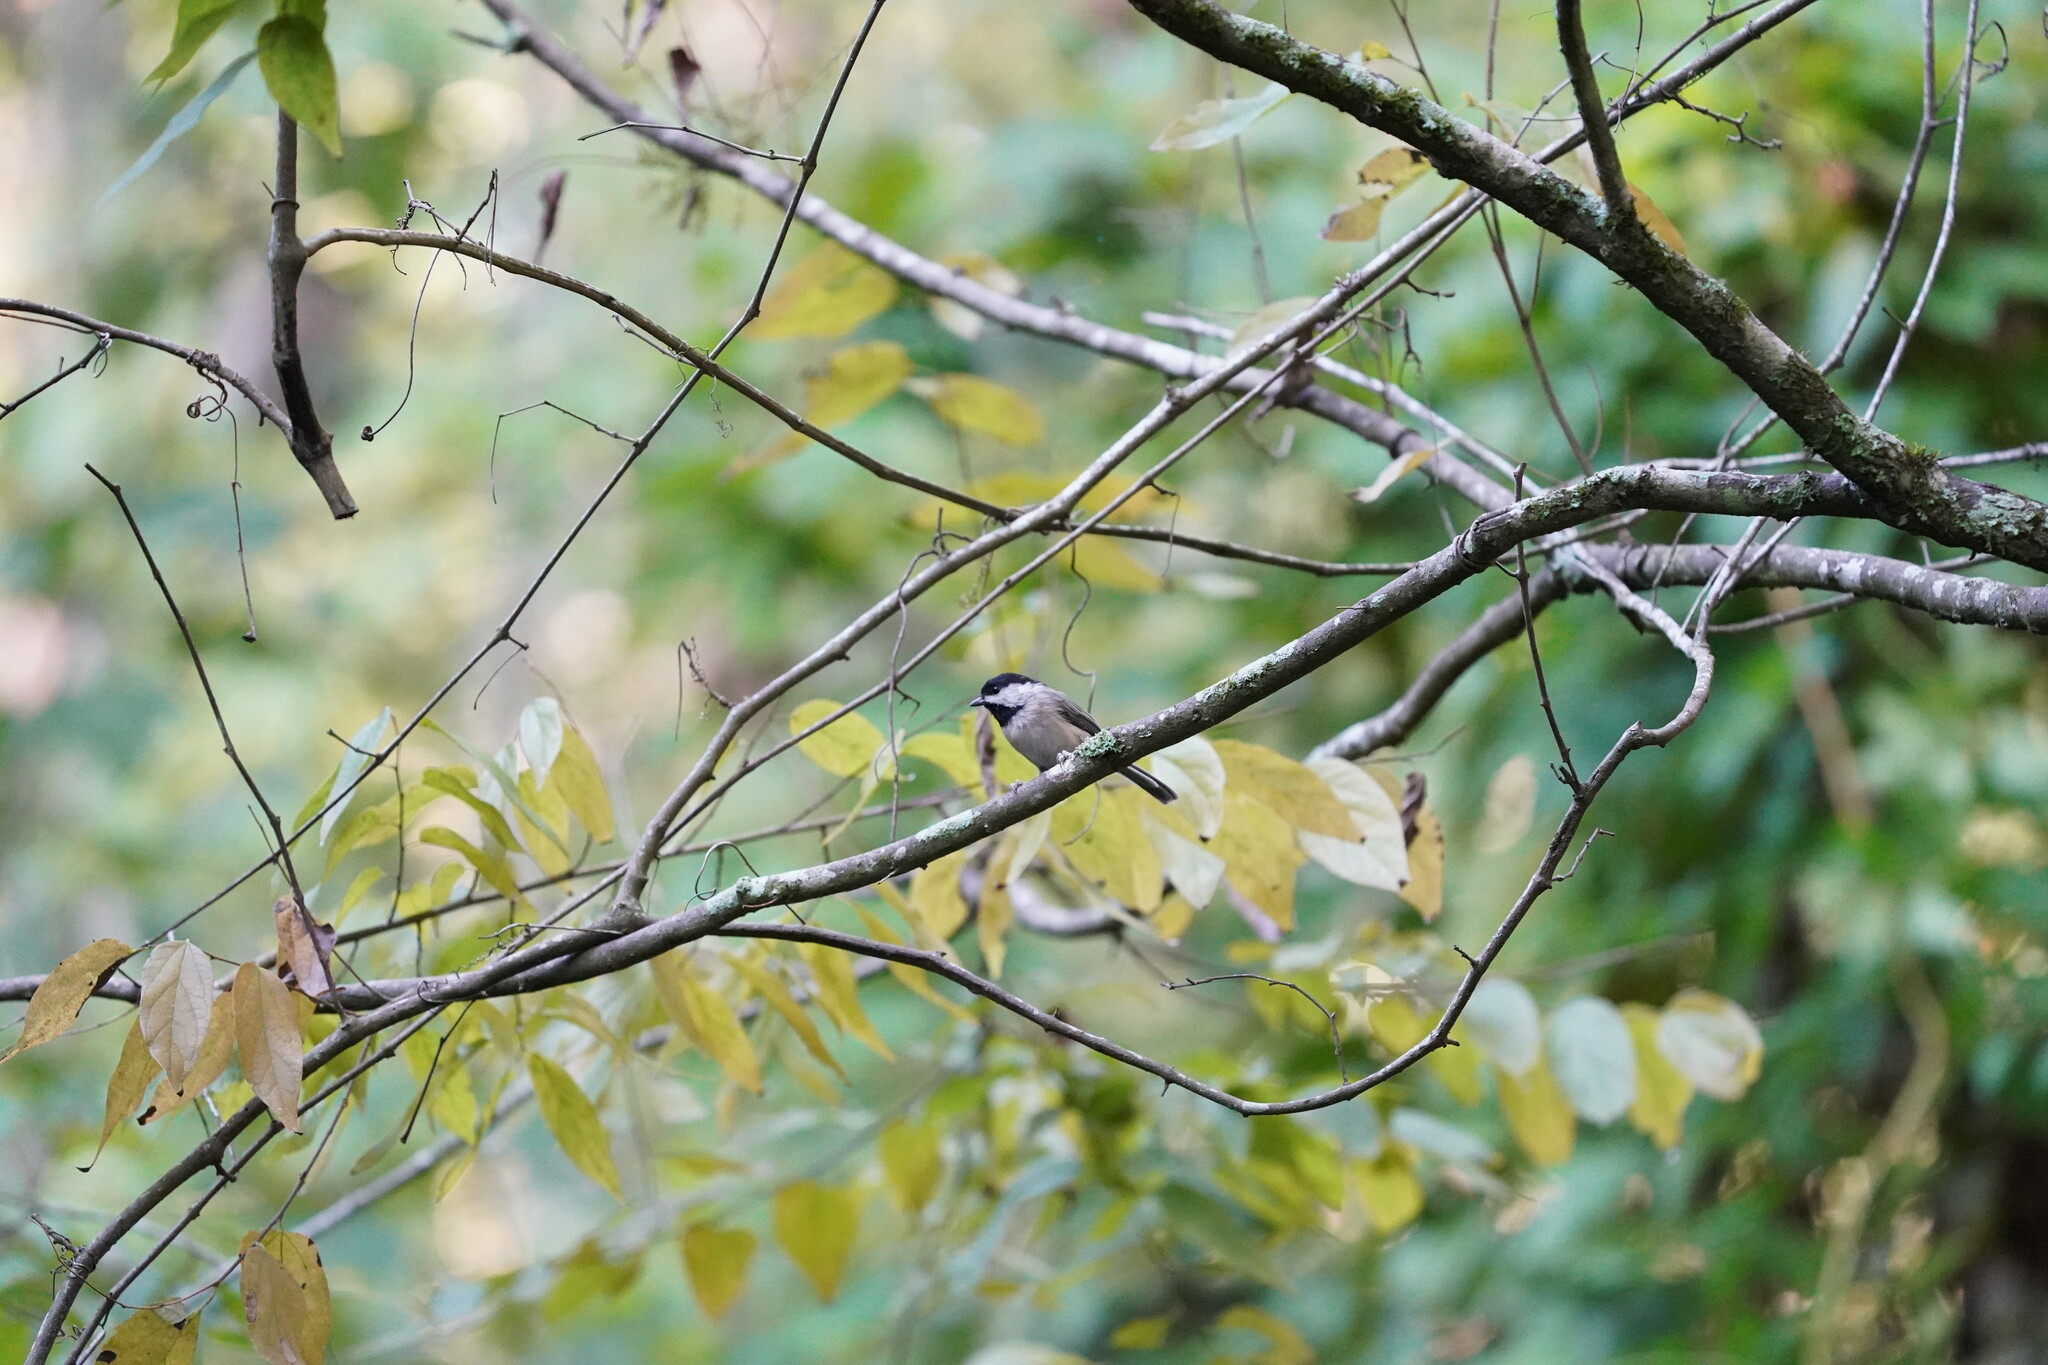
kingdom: Animalia
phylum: Chordata
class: Aves
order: Passeriformes
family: Paridae
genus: Poecile
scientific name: Poecile carolinensis
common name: Carolina chickadee
